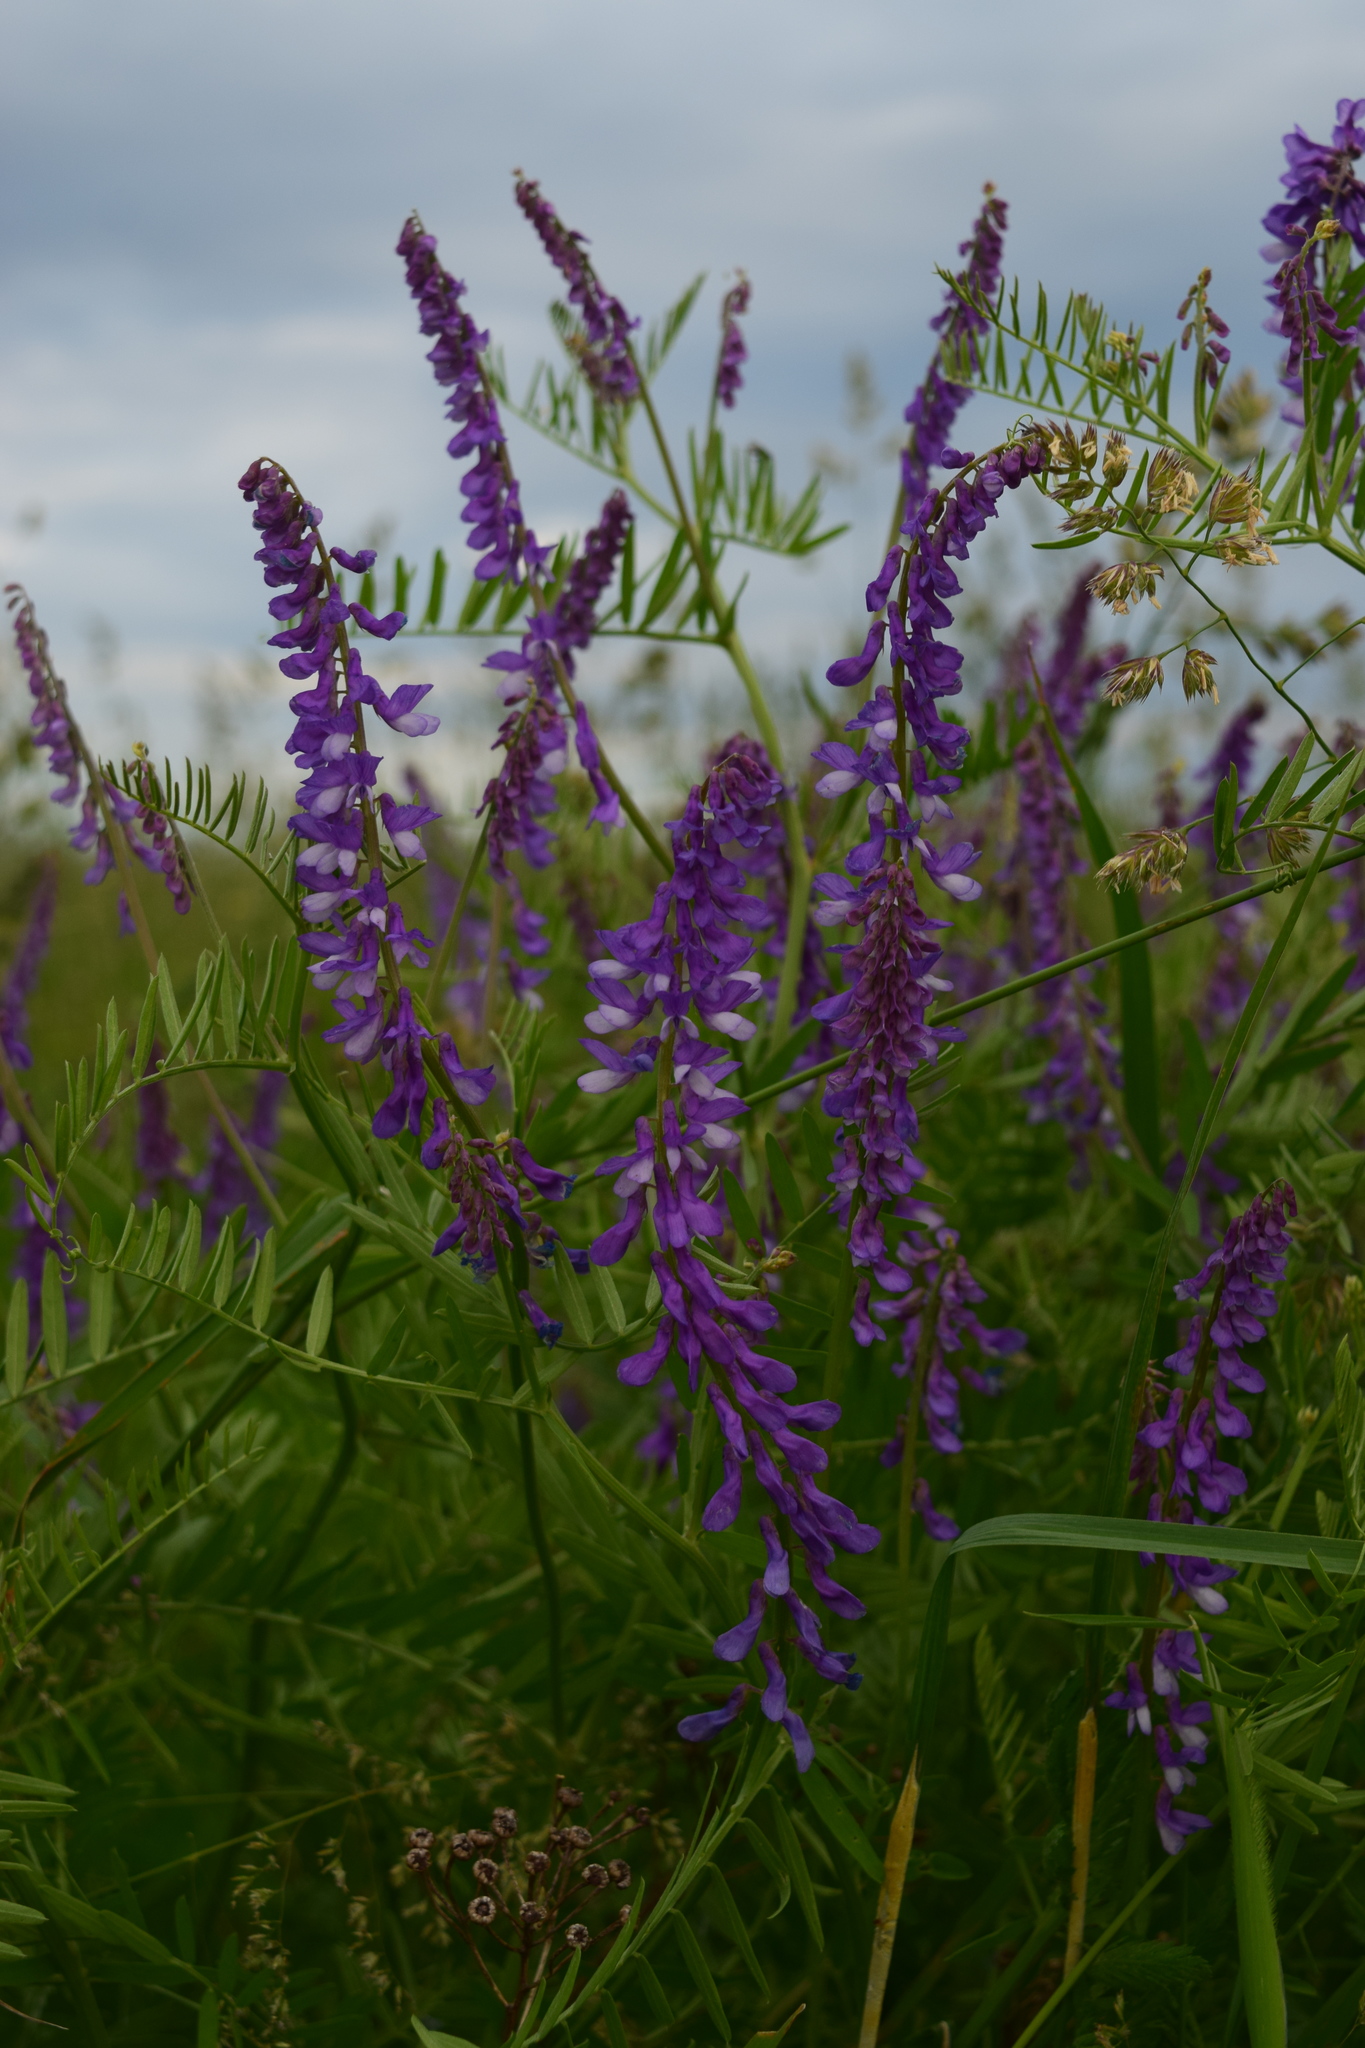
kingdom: Plantae
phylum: Tracheophyta
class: Magnoliopsida
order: Fabales
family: Fabaceae
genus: Vicia
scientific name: Vicia tenuifolia
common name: Fine-leaved vetch
